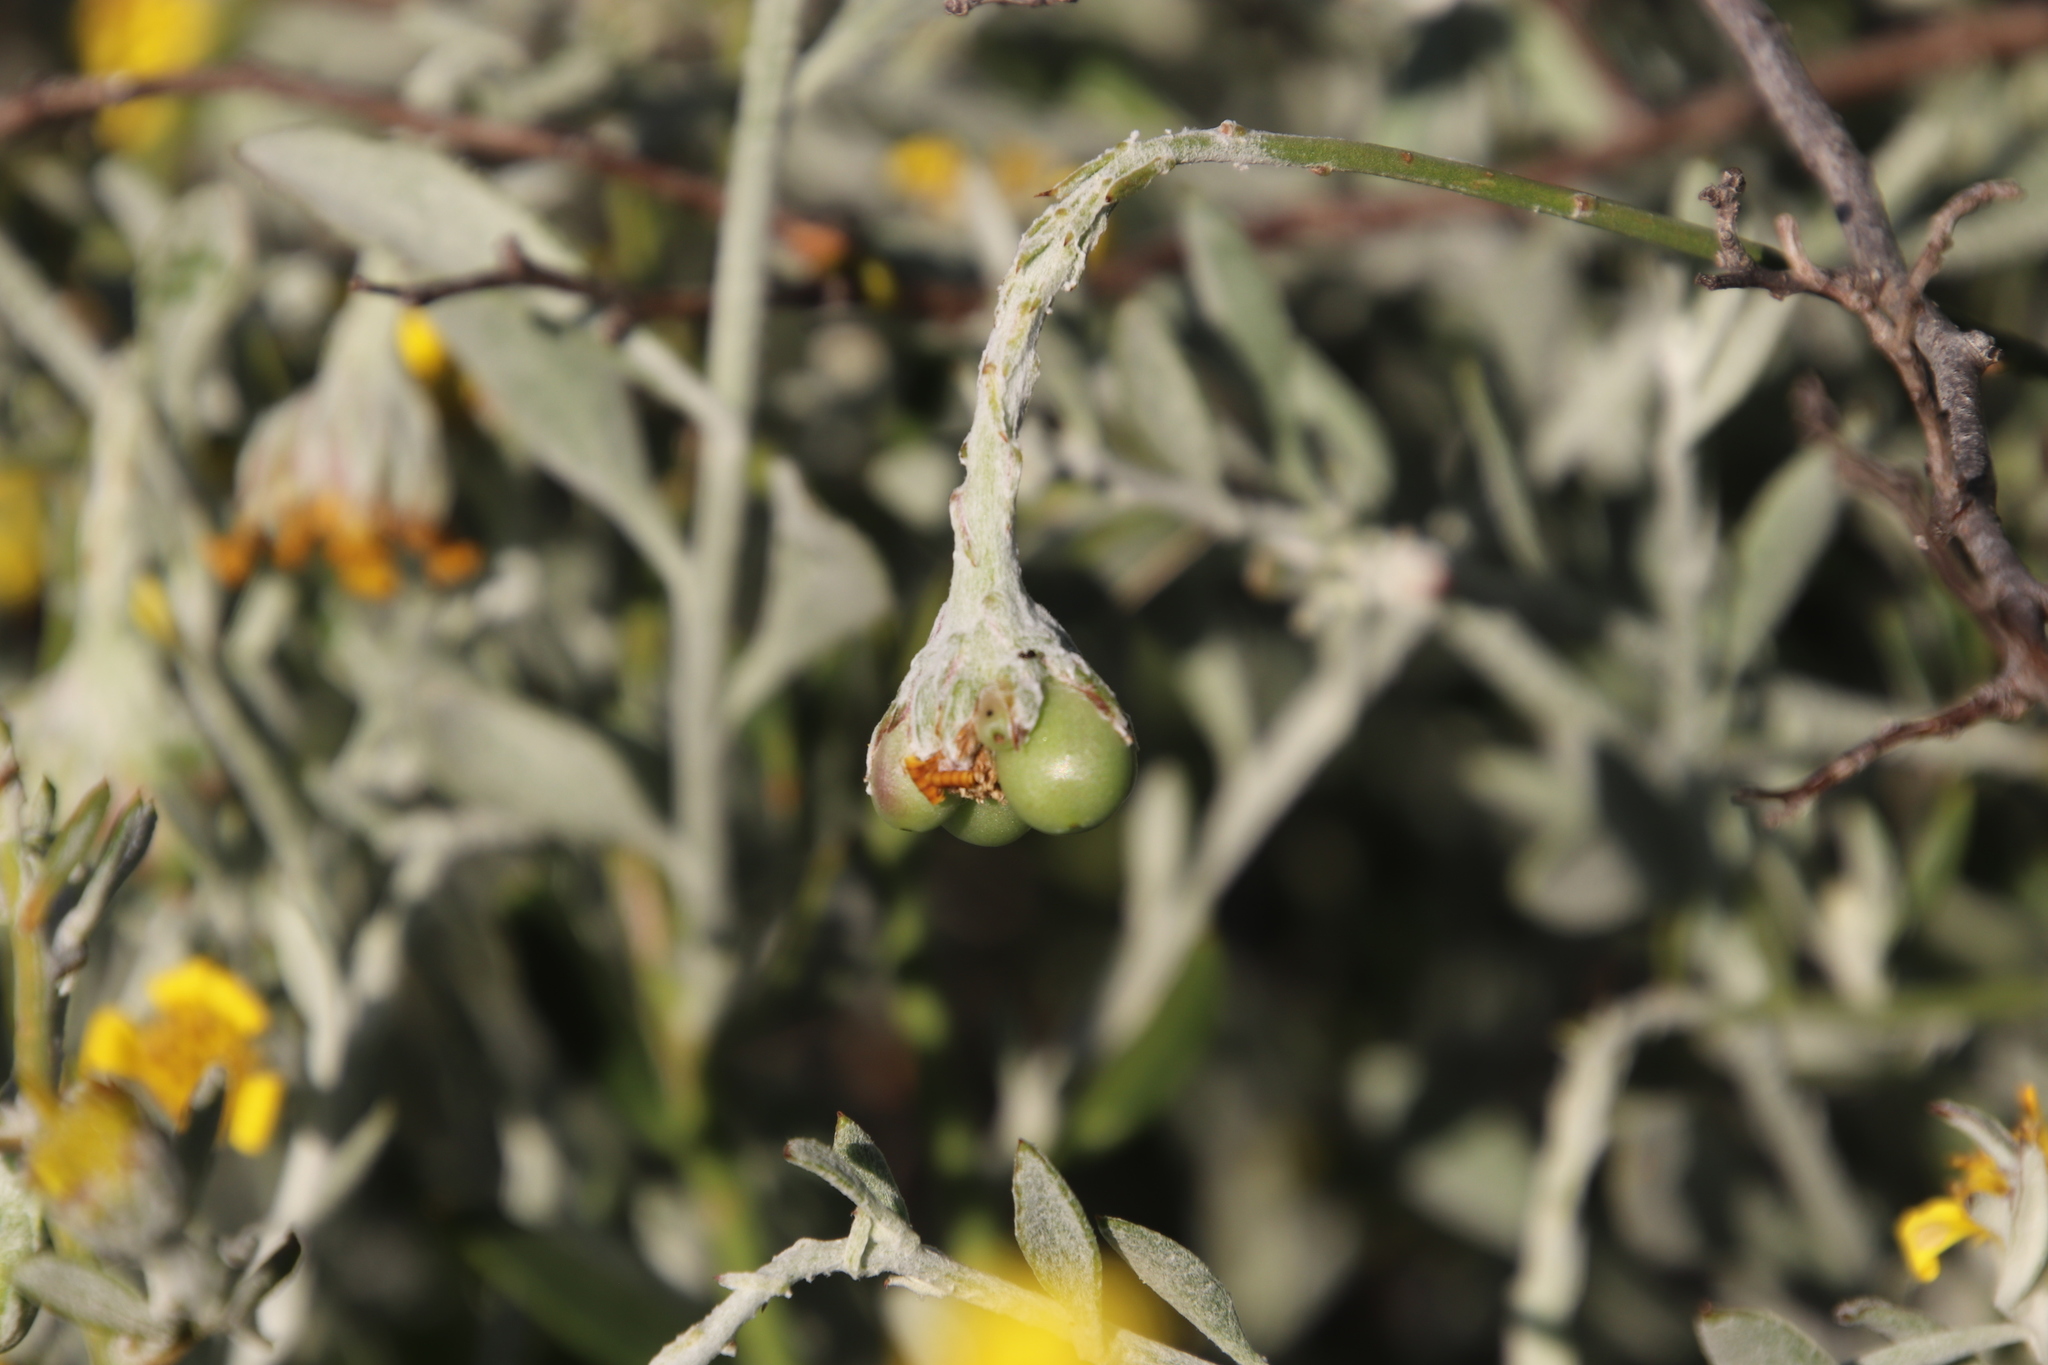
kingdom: Plantae
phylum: Tracheophyta
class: Magnoliopsida
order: Asterales
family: Asteraceae
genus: Osteospermum
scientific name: Osteospermum incanum
